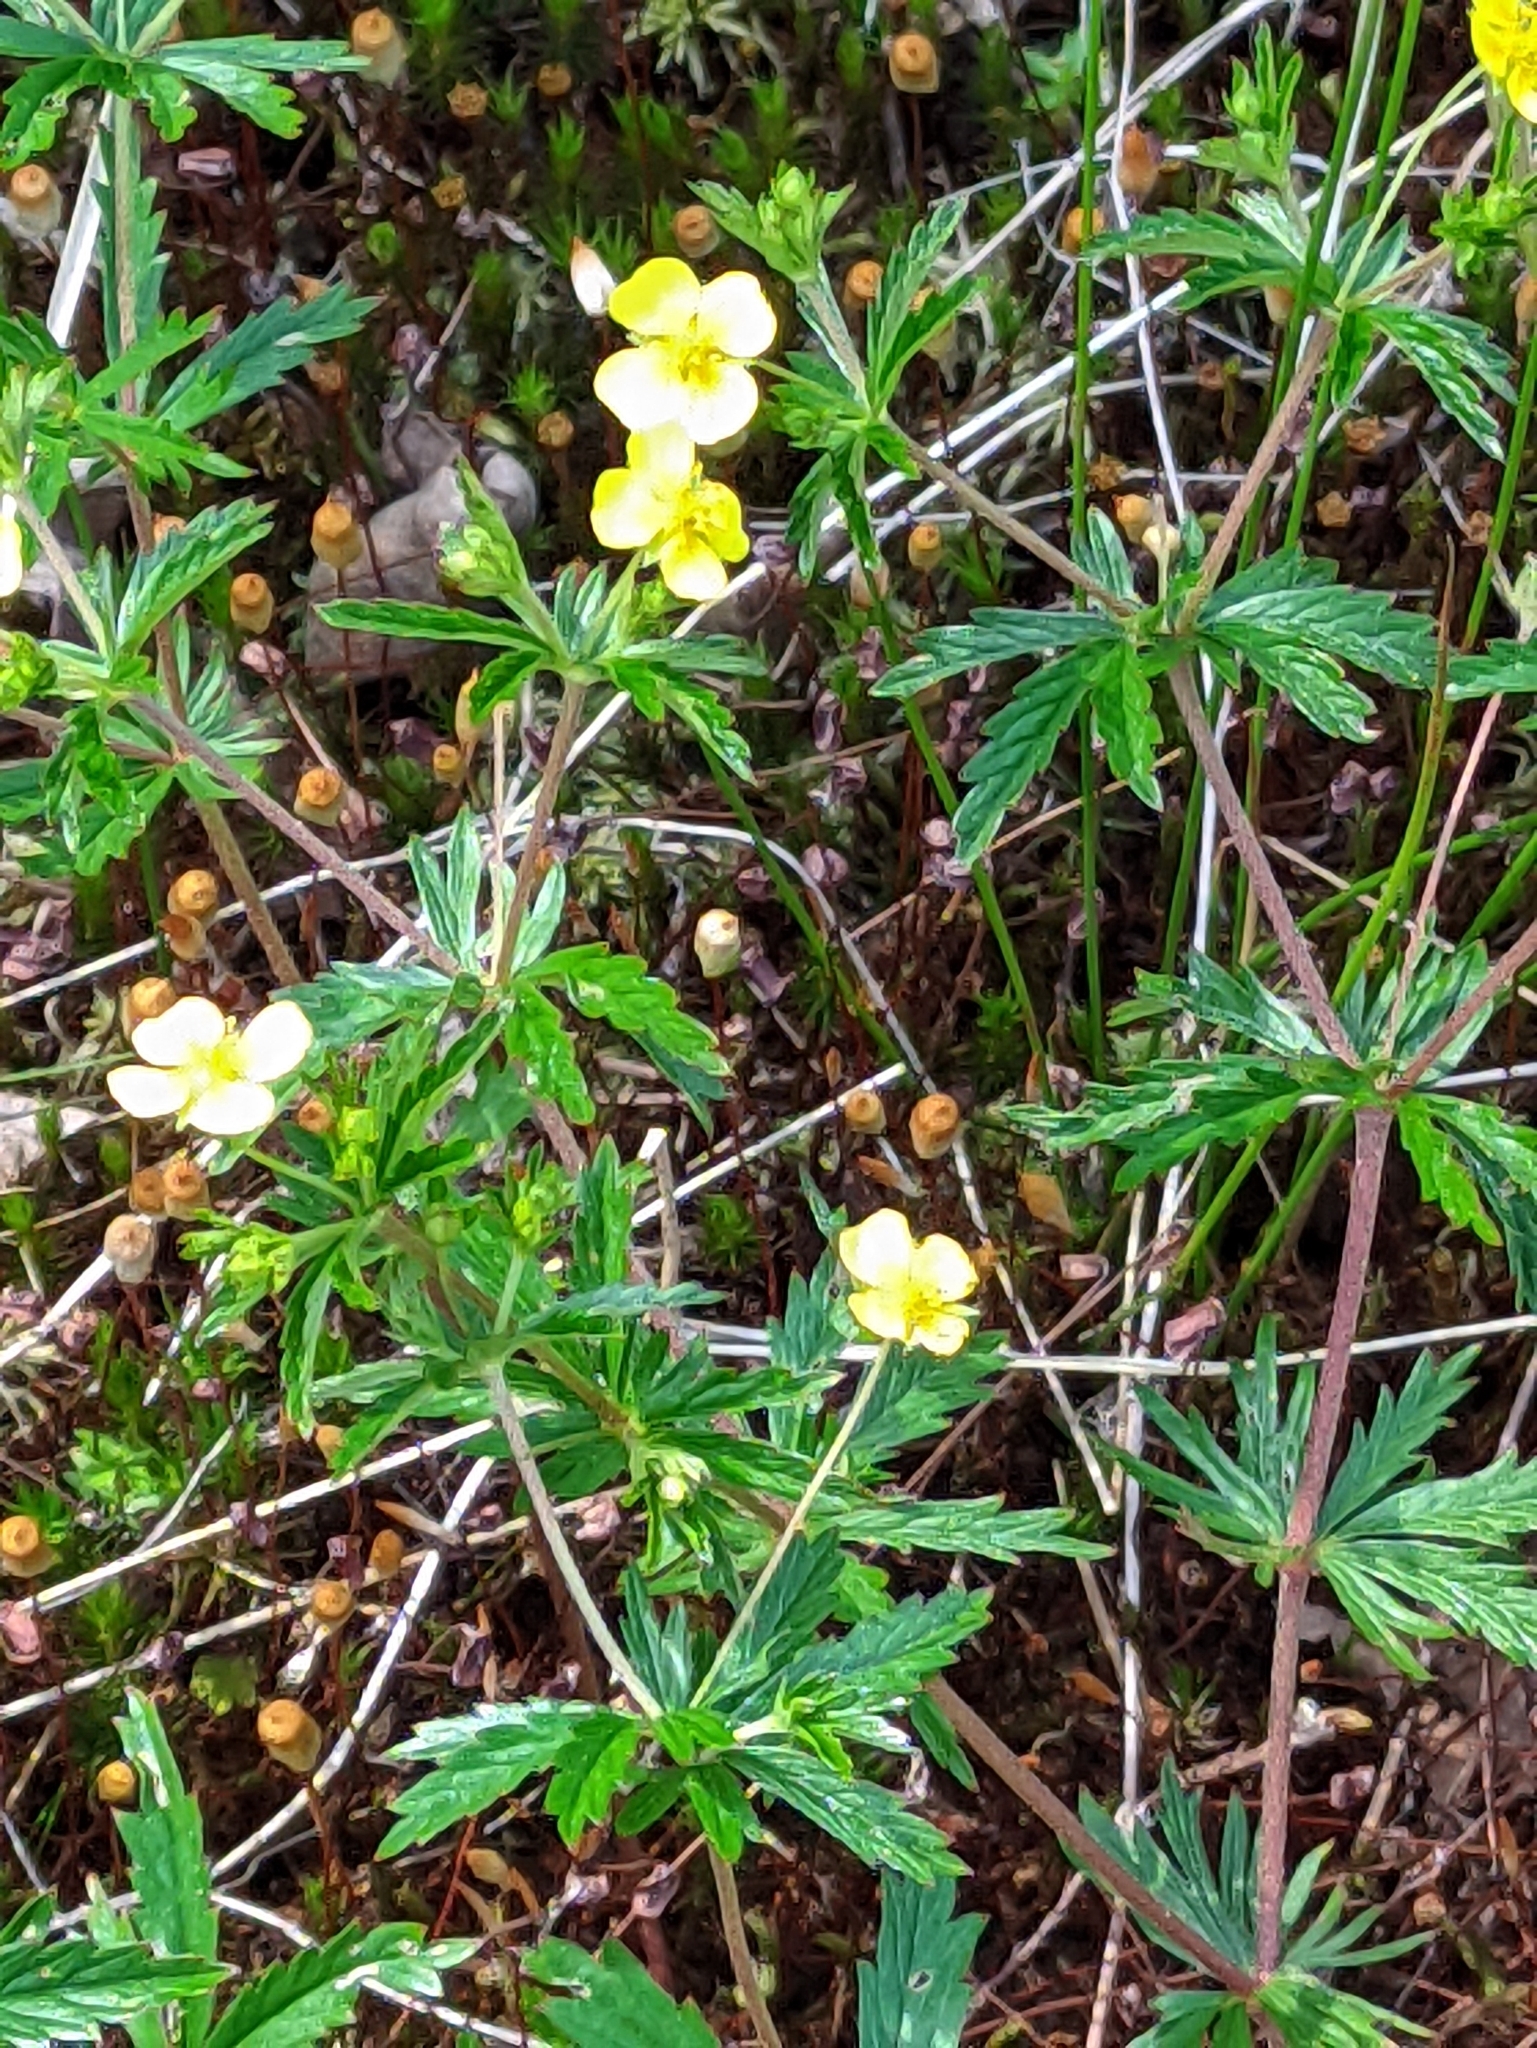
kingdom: Plantae
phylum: Tracheophyta
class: Magnoliopsida
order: Rosales
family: Rosaceae
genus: Potentilla
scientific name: Potentilla erecta
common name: Tormentil
